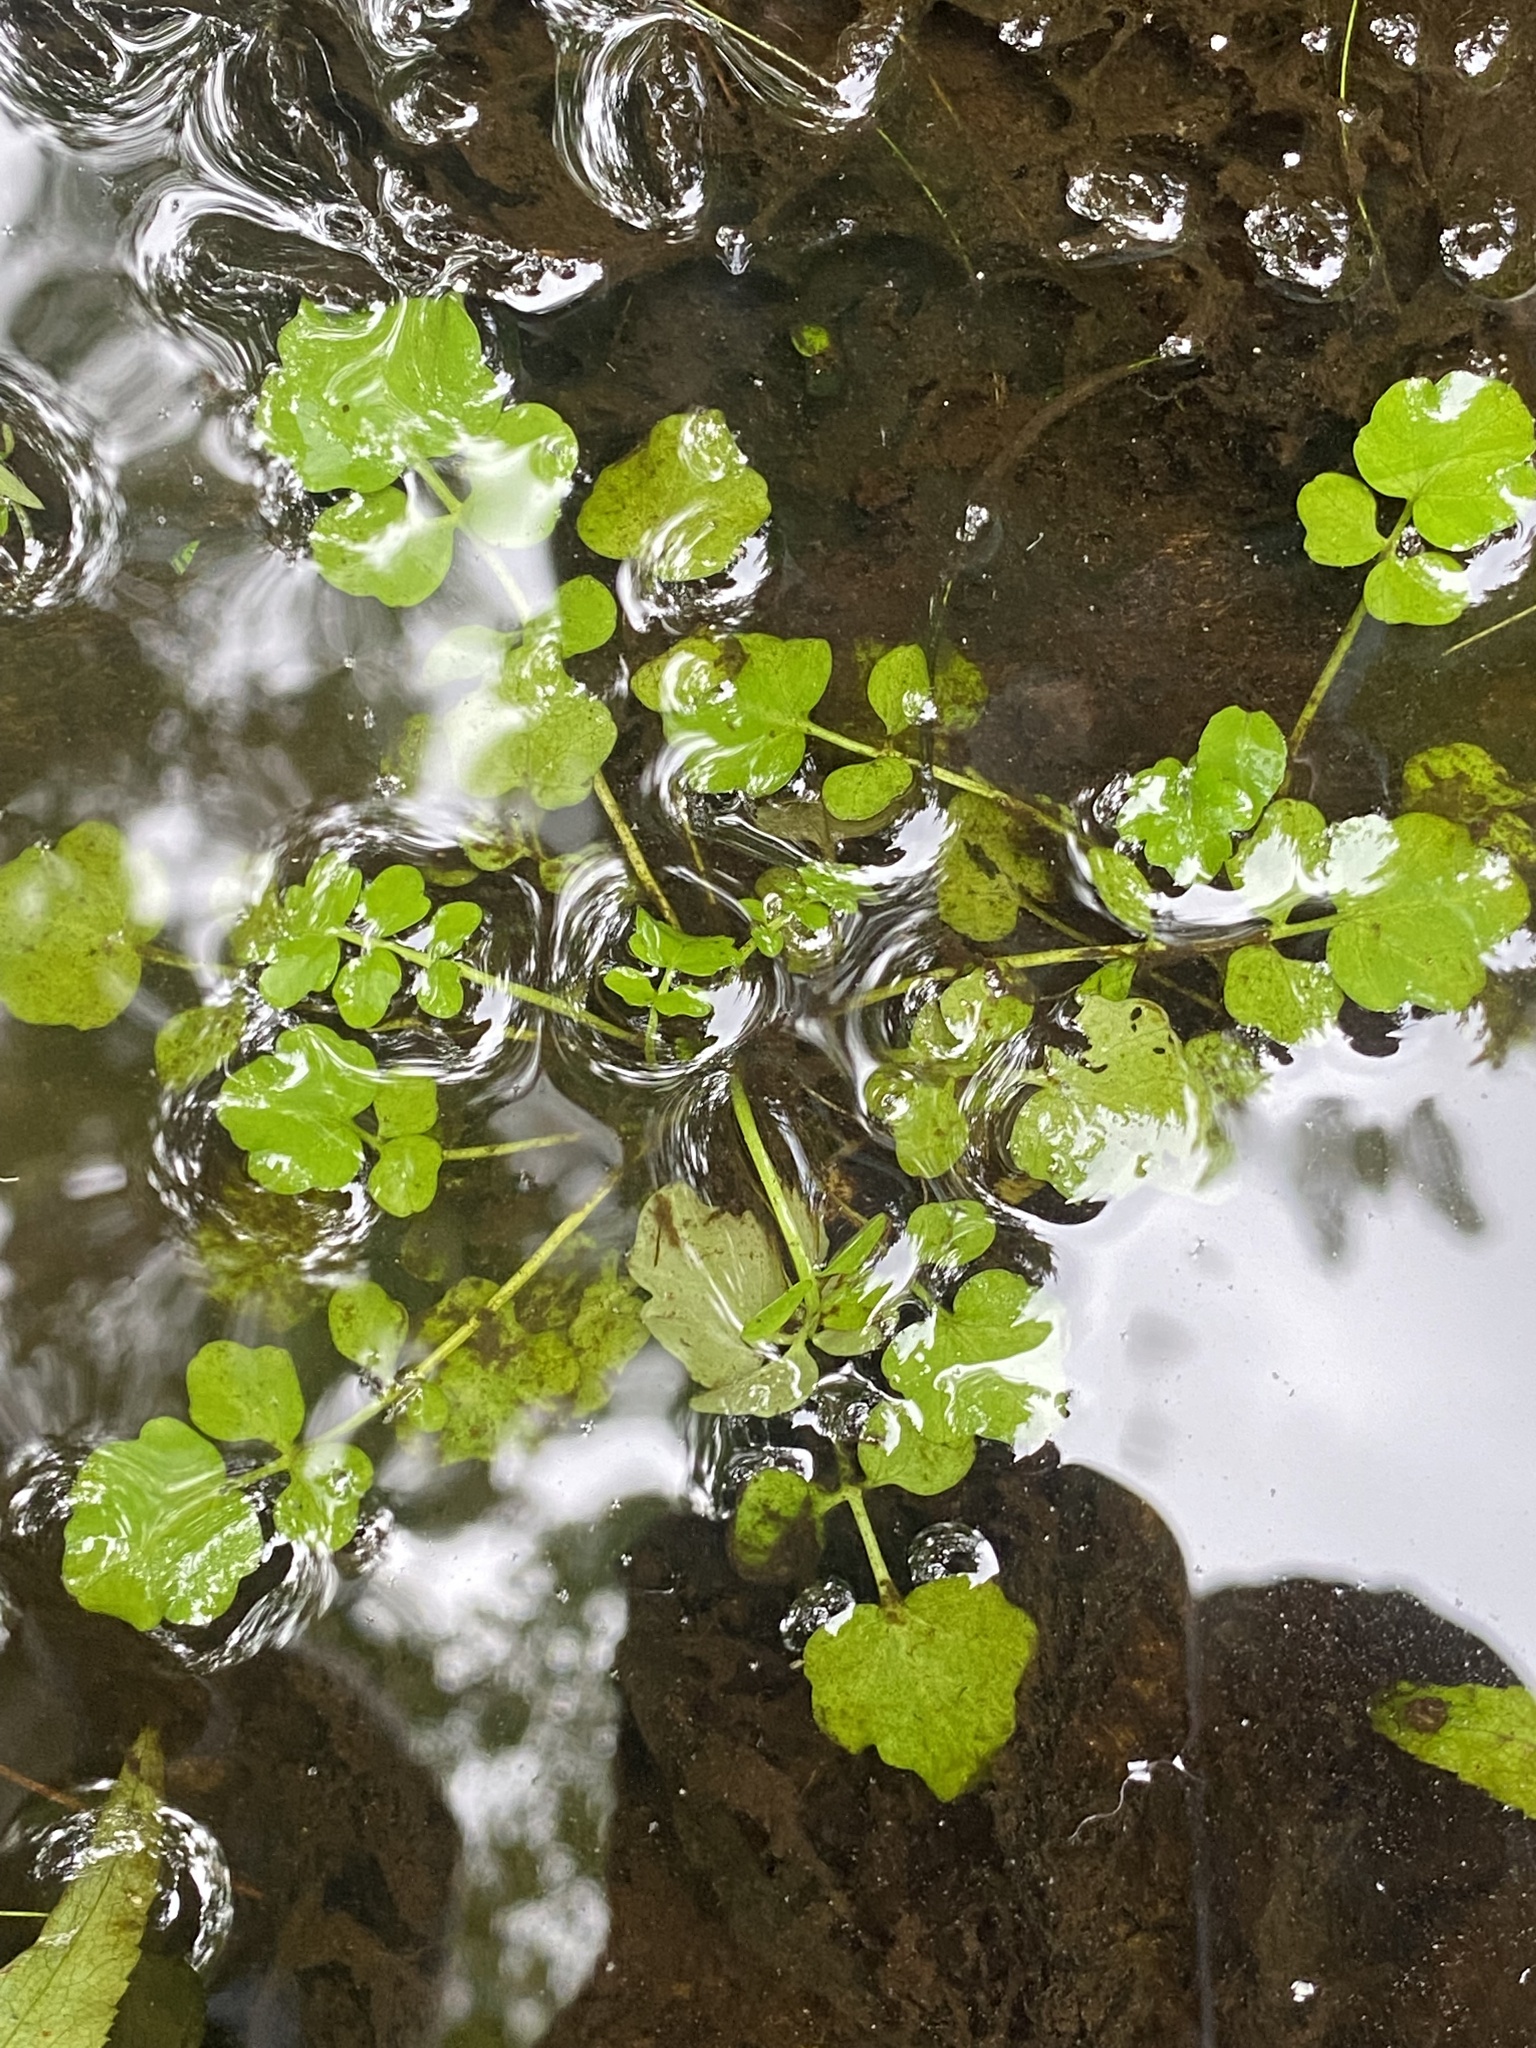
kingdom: Plantae
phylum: Tracheophyta
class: Magnoliopsida
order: Brassicales
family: Brassicaceae
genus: Cardamine
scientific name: Cardamine pensylvanica
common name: Pennsylvania bittercress
